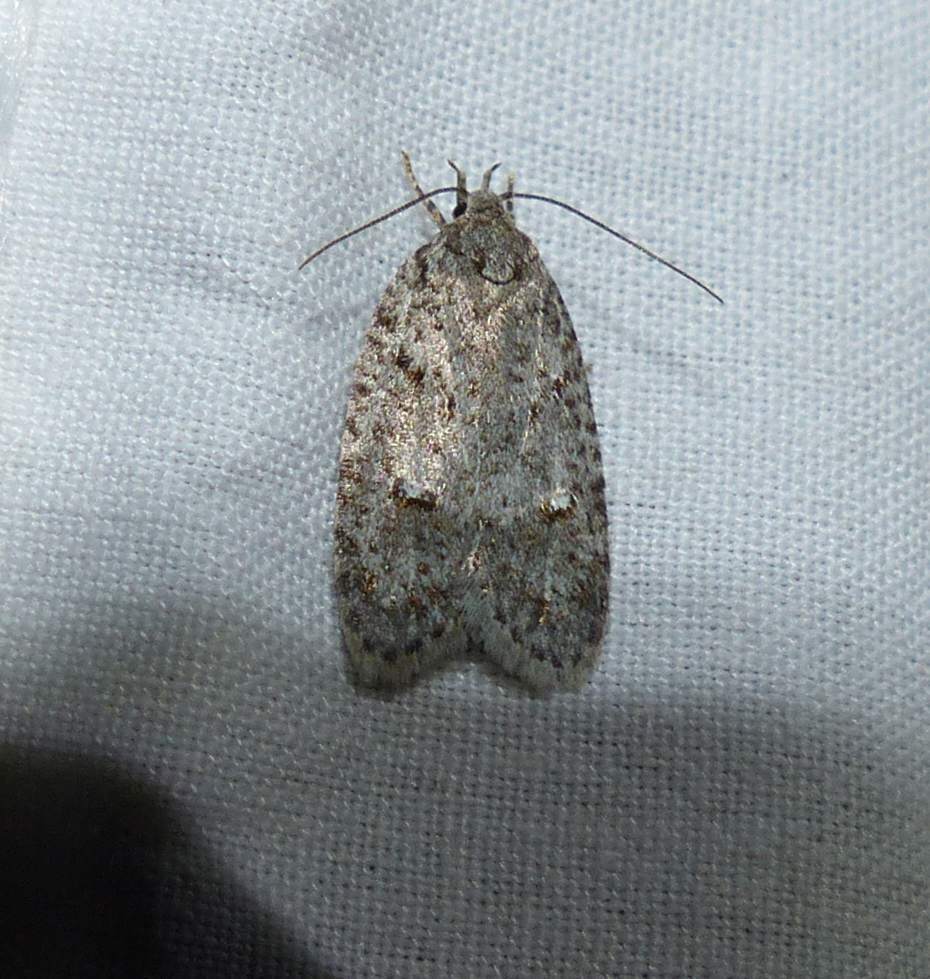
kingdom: Animalia
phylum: Arthropoda
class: Insecta
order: Lepidoptera
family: Depressariidae
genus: Bibarrambla
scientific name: Bibarrambla allenella
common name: Bog bibarrambla moth
